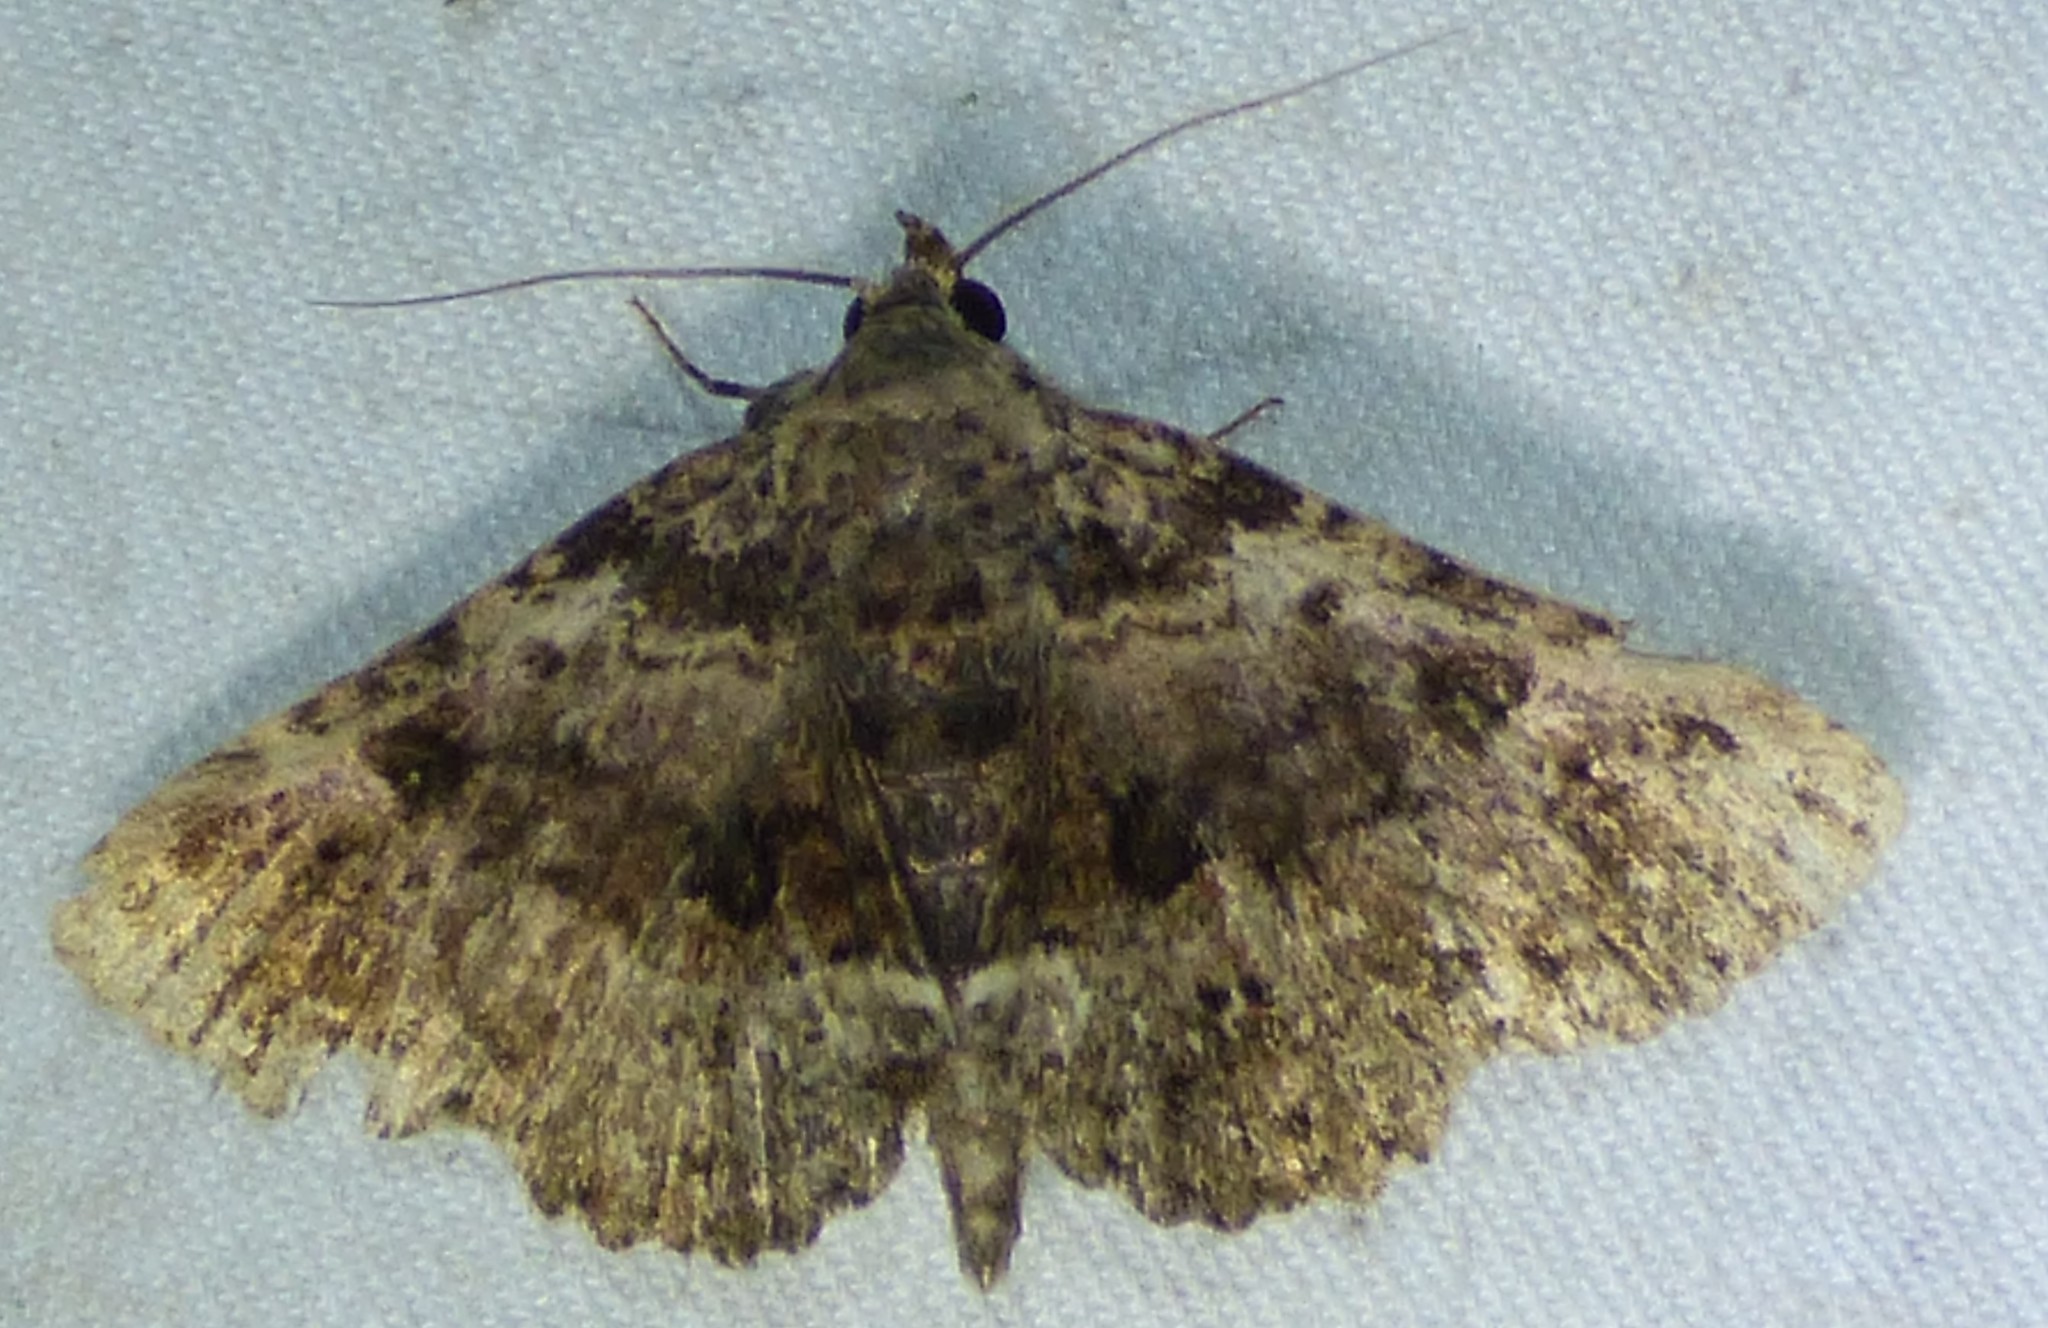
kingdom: Animalia
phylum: Arthropoda
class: Insecta
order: Lepidoptera
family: Erebidae
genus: Metalectra
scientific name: Metalectra discalis
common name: Common fungus moth
